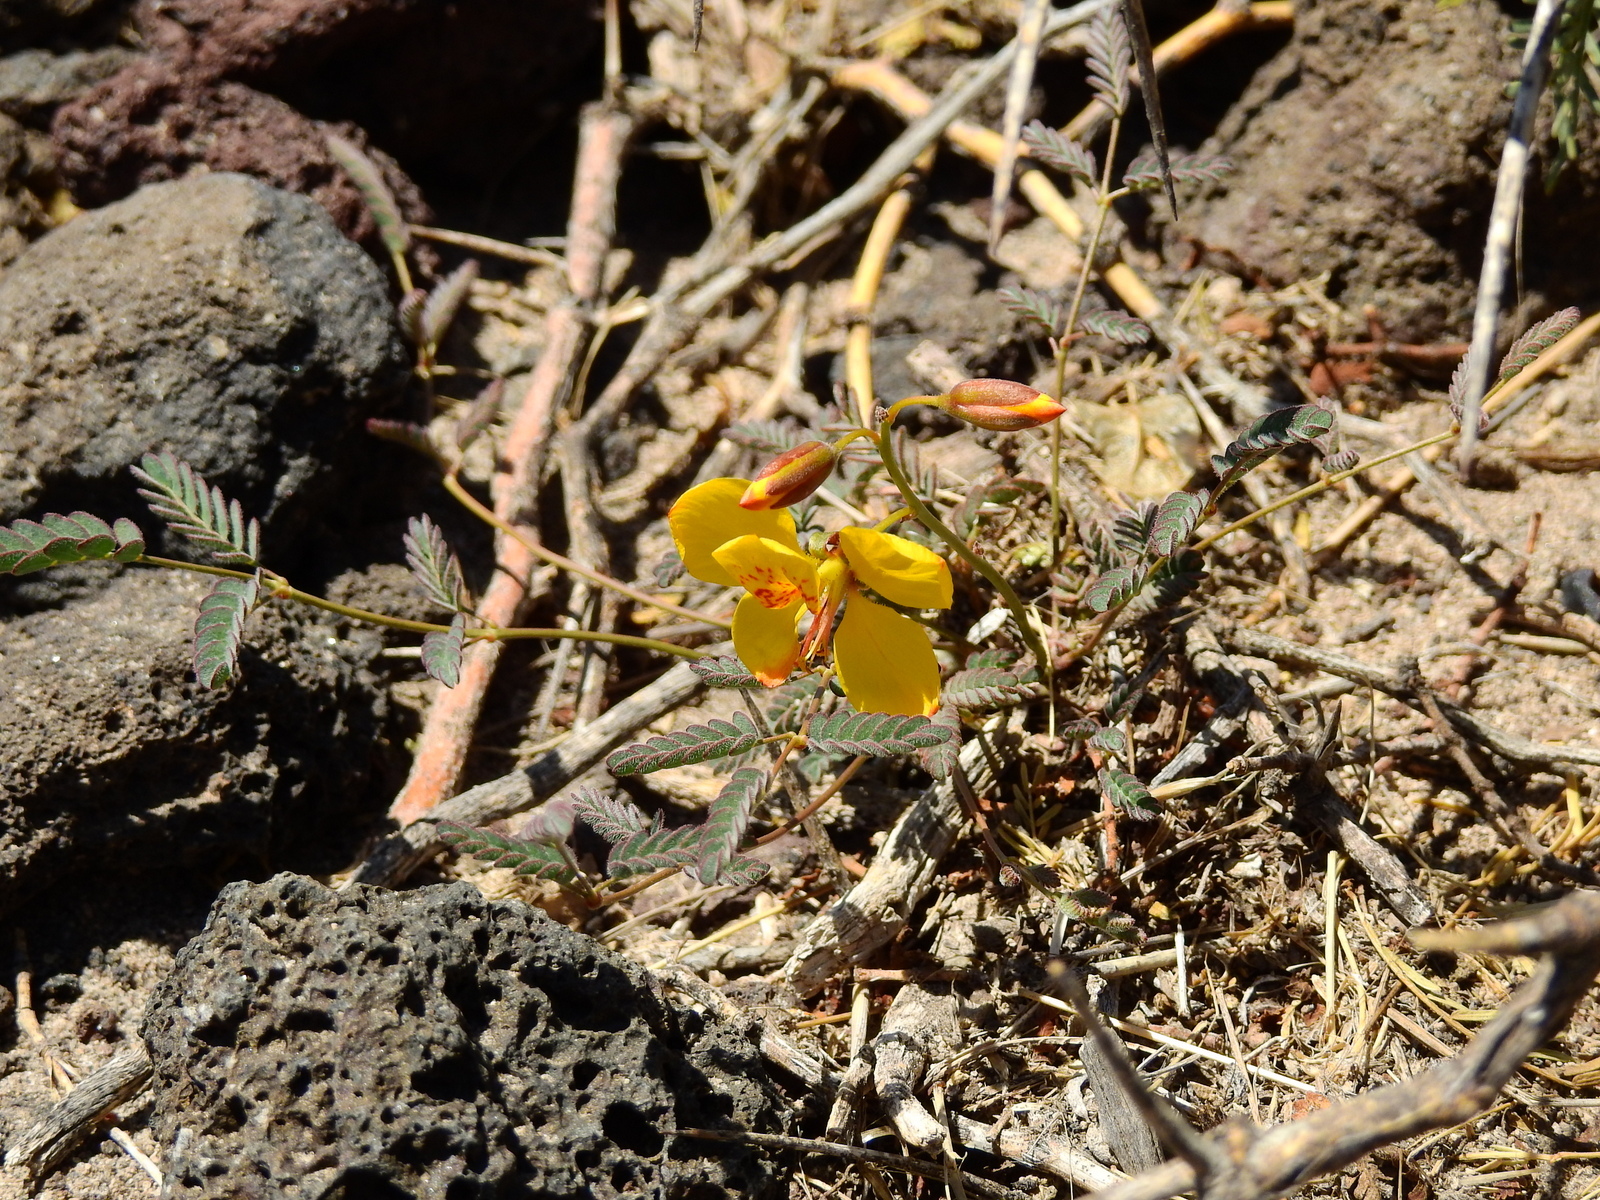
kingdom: Plantae
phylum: Tracheophyta
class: Magnoliopsida
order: Fabales
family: Fabaceae
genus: Hoffmannseggia
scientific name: Hoffmannseggia glauca
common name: Pignut
